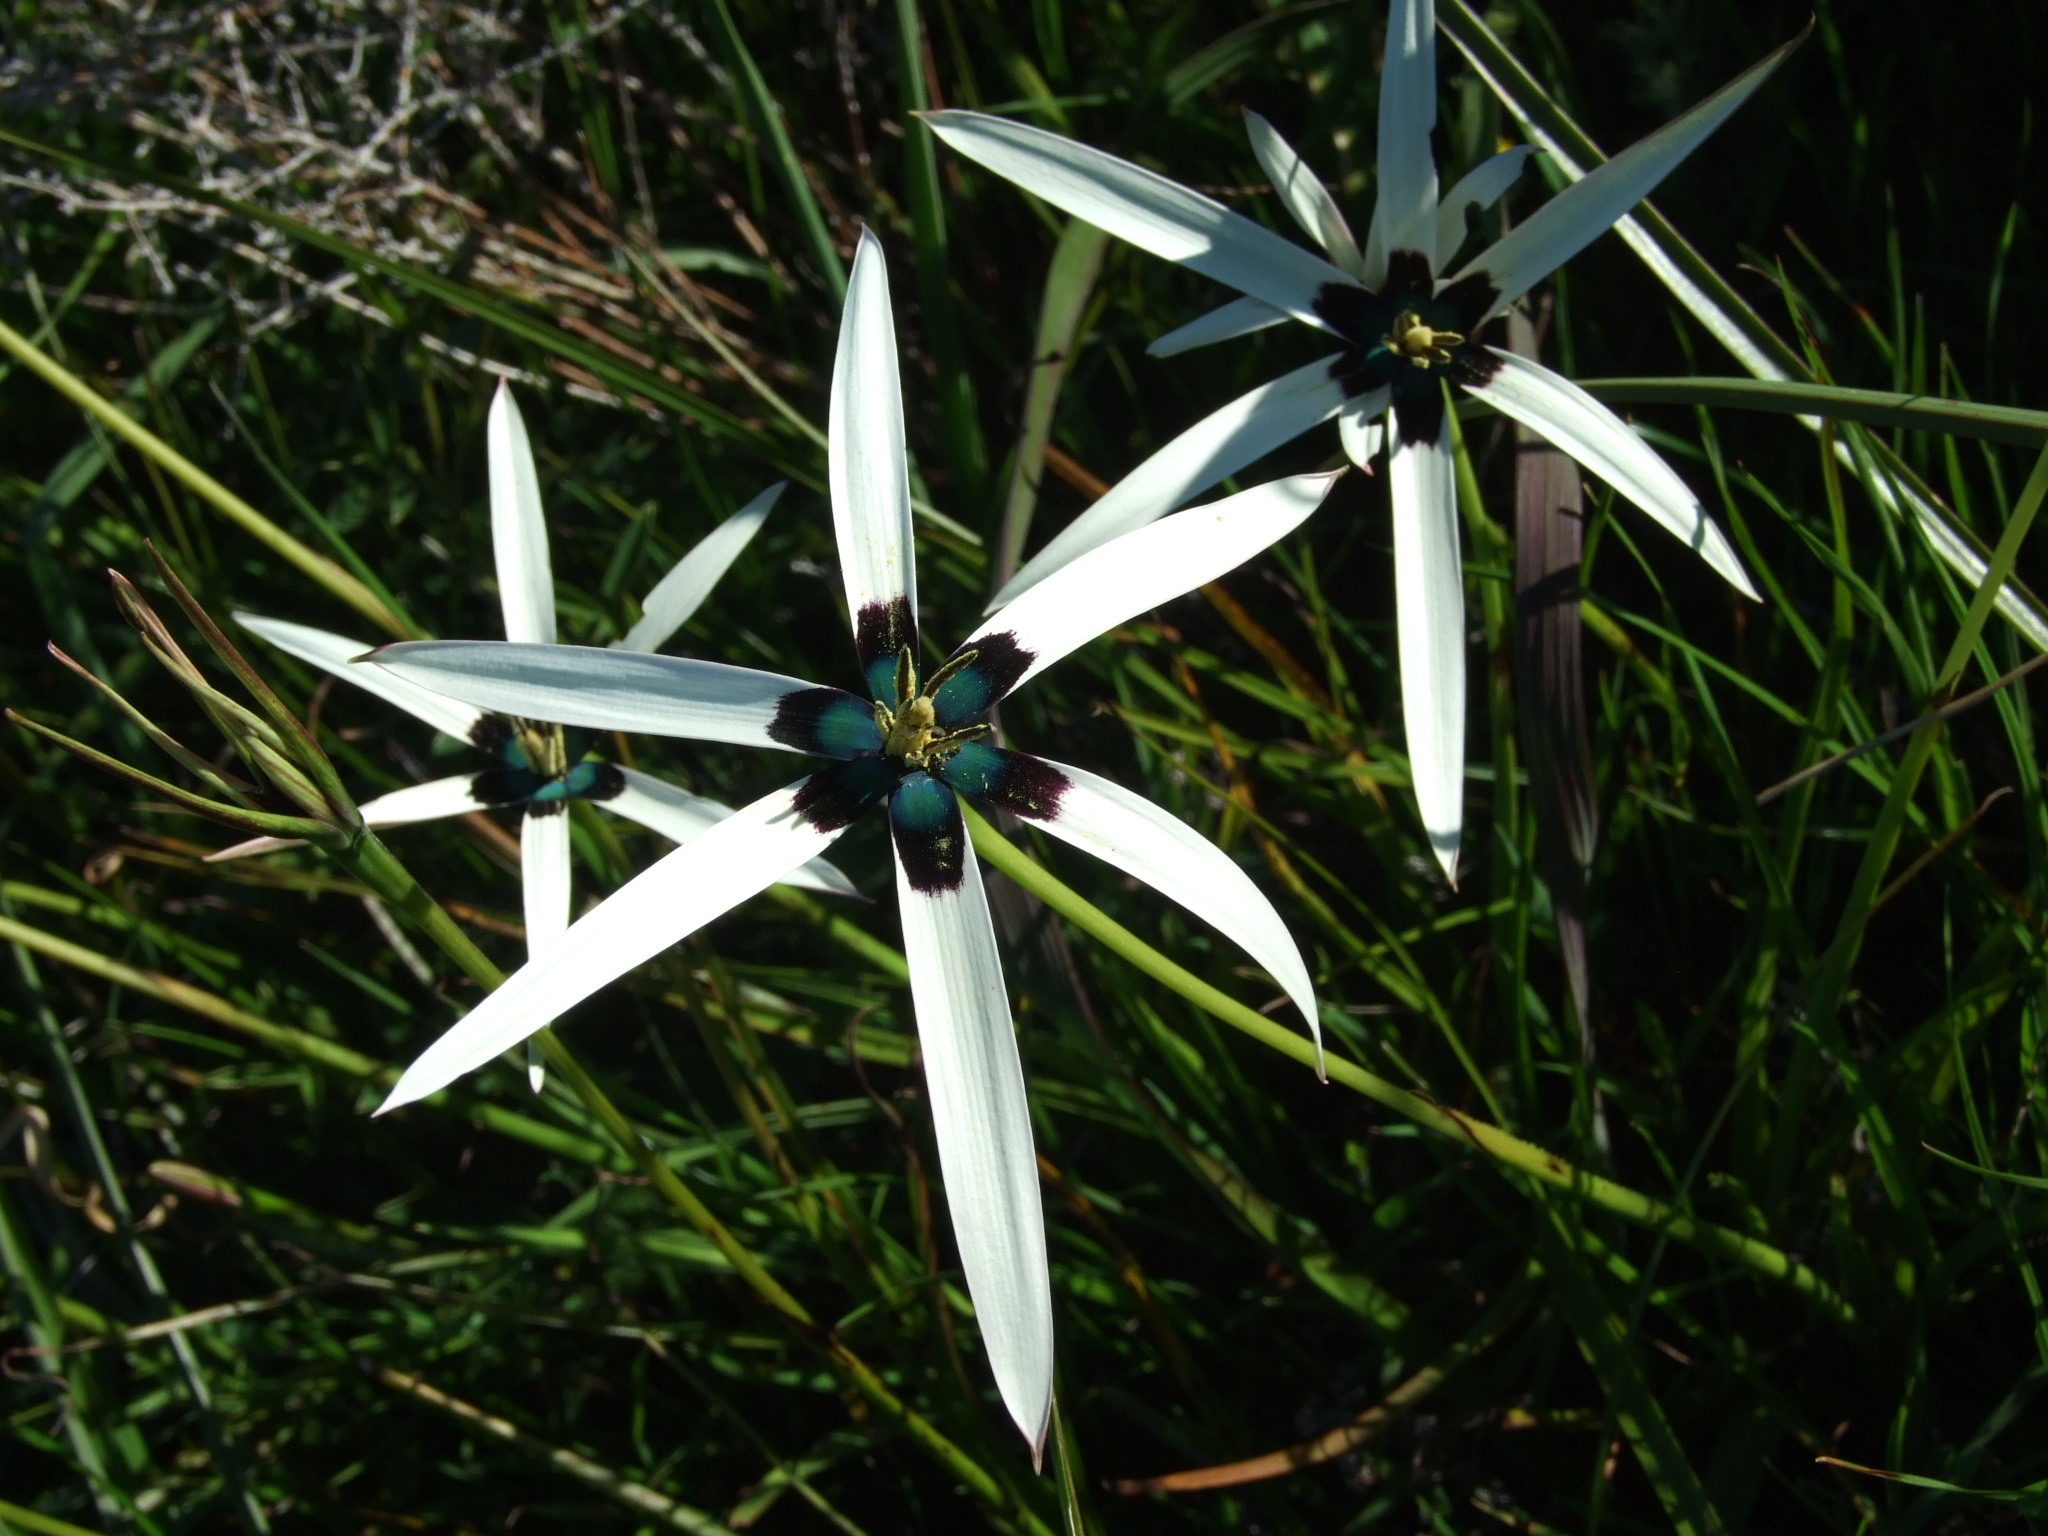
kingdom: Plantae
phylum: Tracheophyta
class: Liliopsida
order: Asparagales
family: Hypoxidaceae
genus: Pauridia
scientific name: Pauridia capensis
